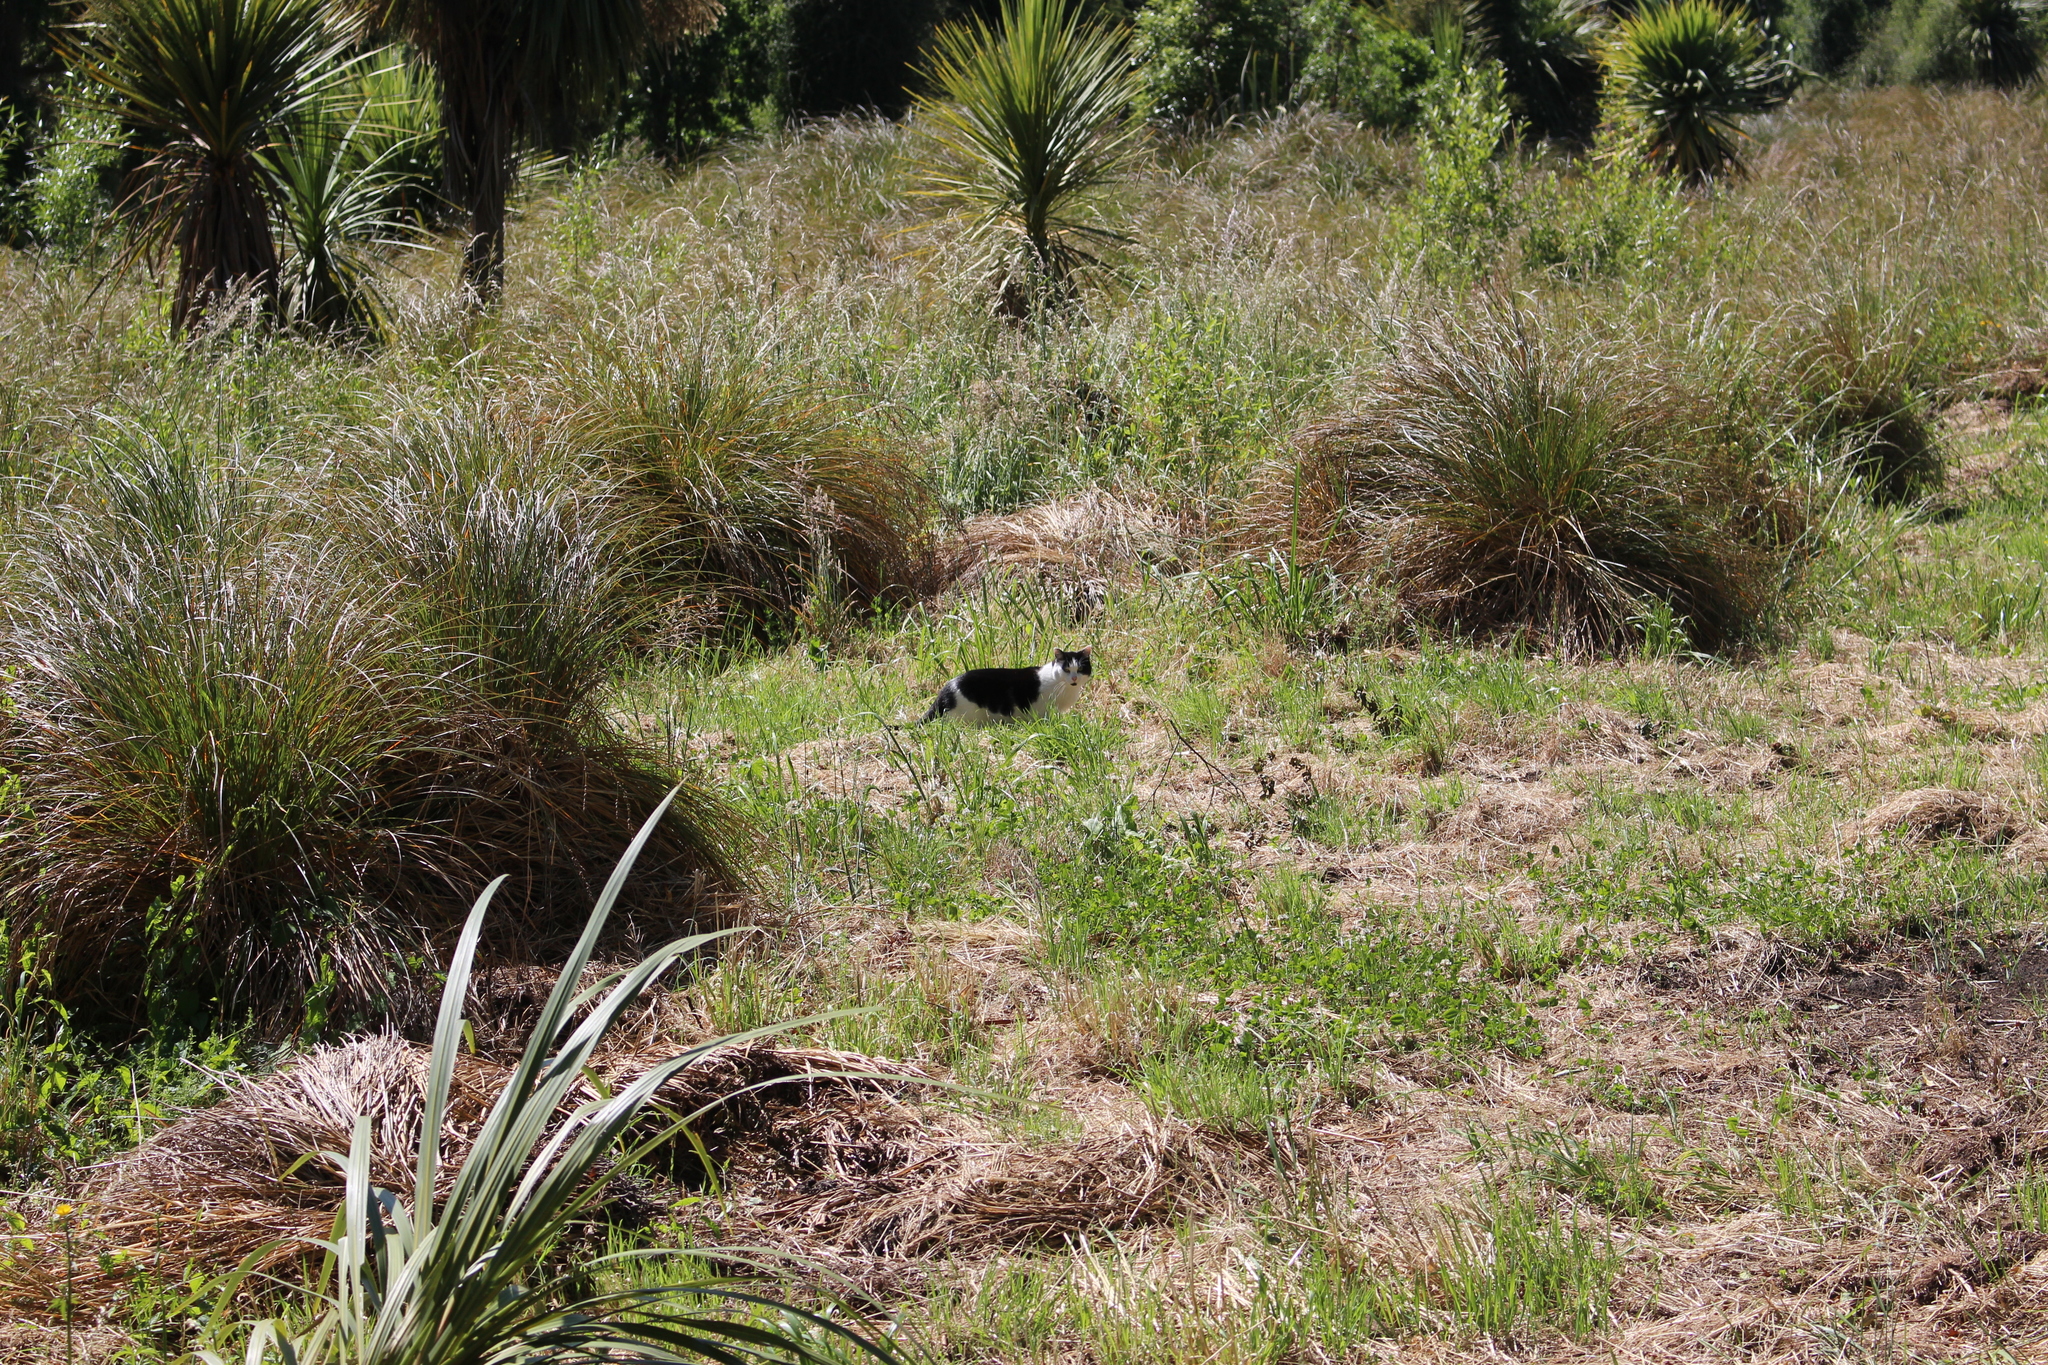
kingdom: Animalia
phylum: Chordata
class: Mammalia
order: Carnivora
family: Felidae
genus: Felis
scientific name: Felis catus
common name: Domestic cat
